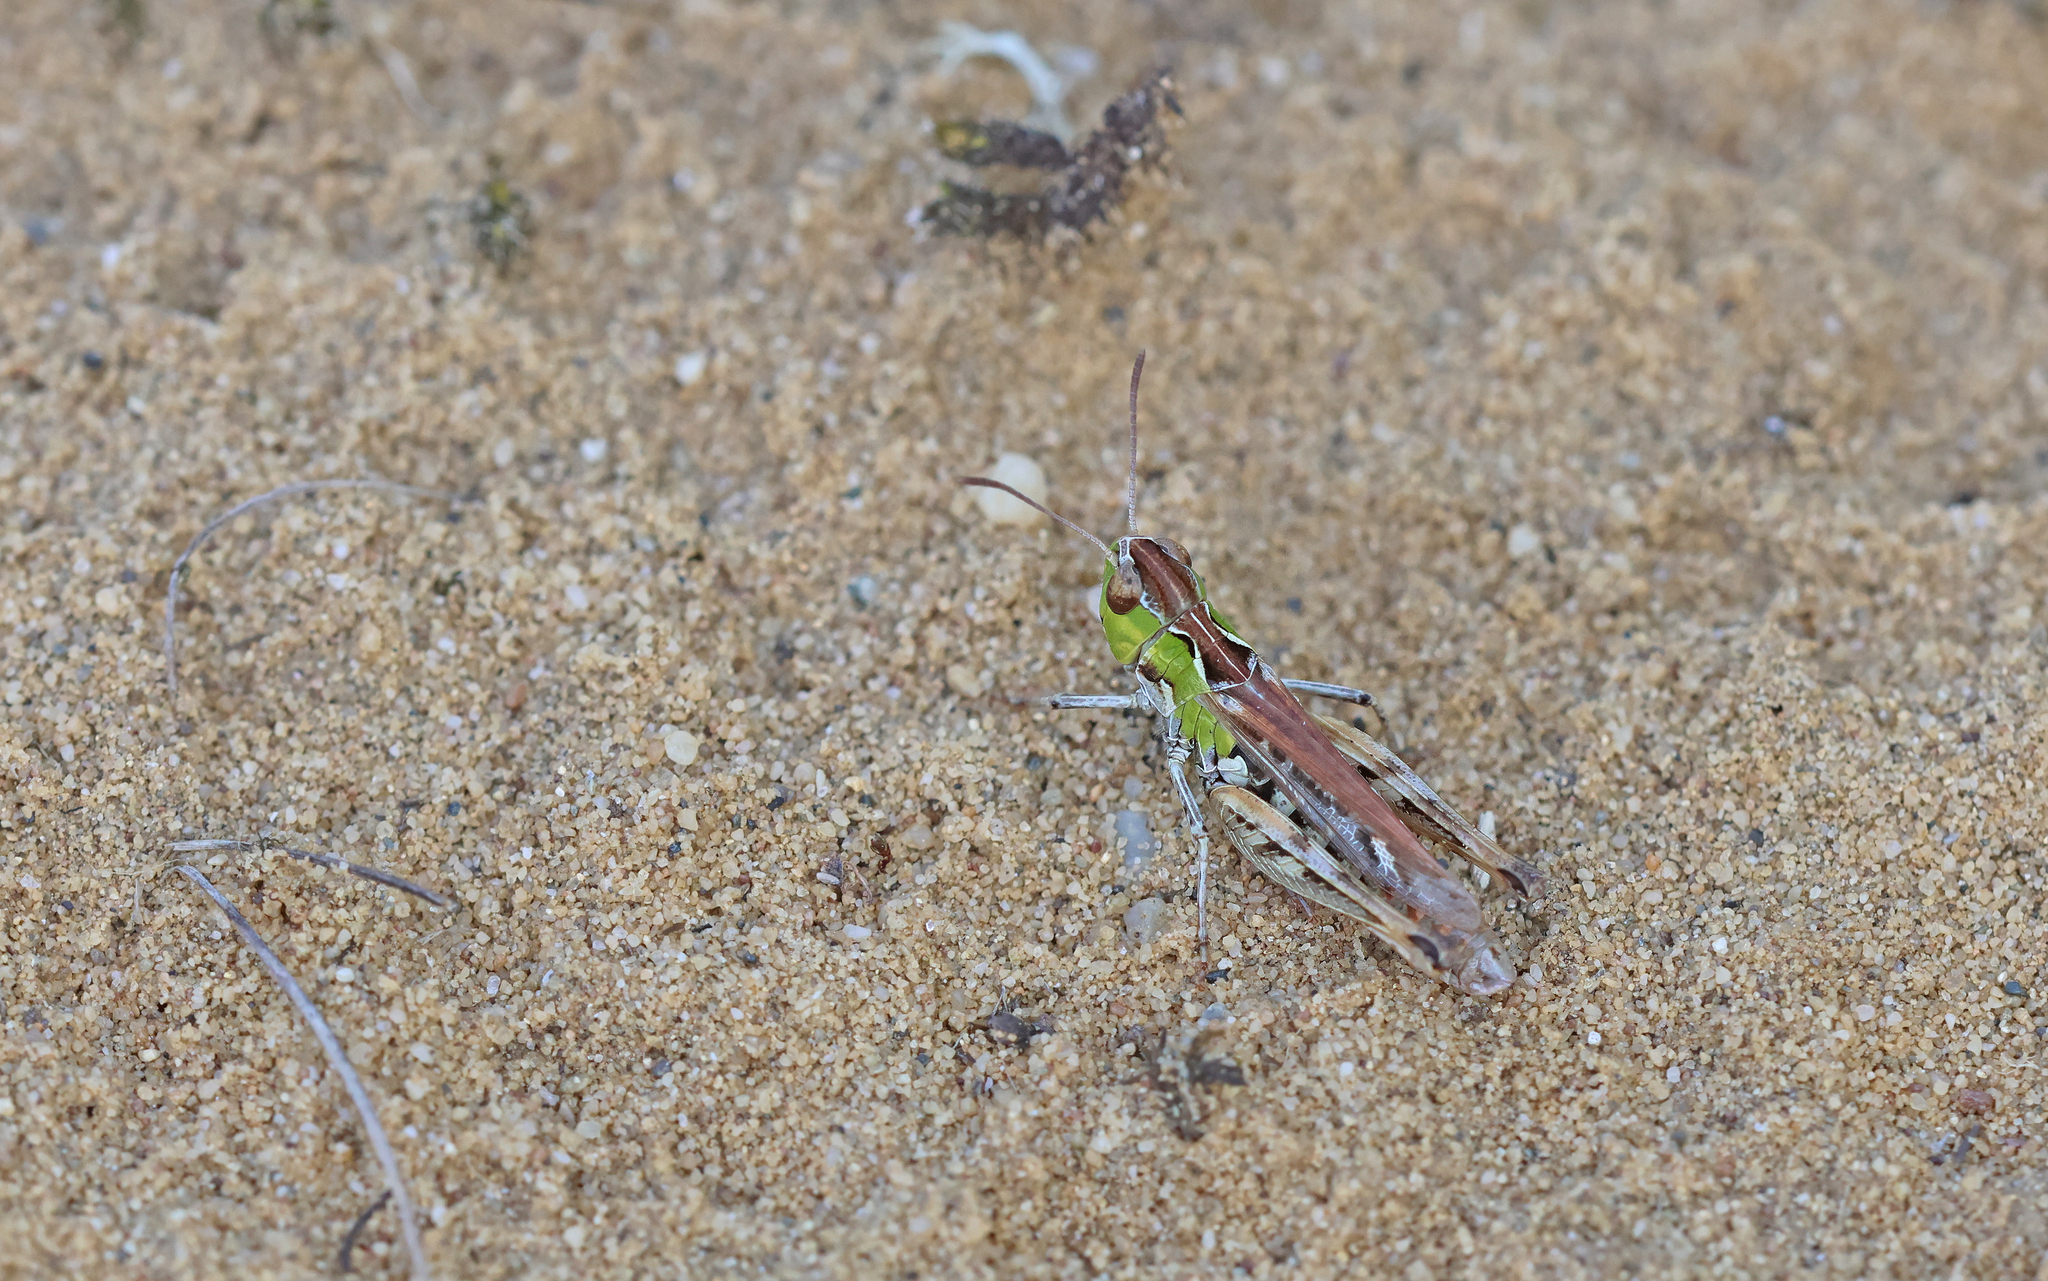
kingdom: Animalia
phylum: Arthropoda
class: Insecta
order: Orthoptera
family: Acrididae
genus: Myrmeleotettix
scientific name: Myrmeleotettix maculatus
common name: Mottled grasshopper
